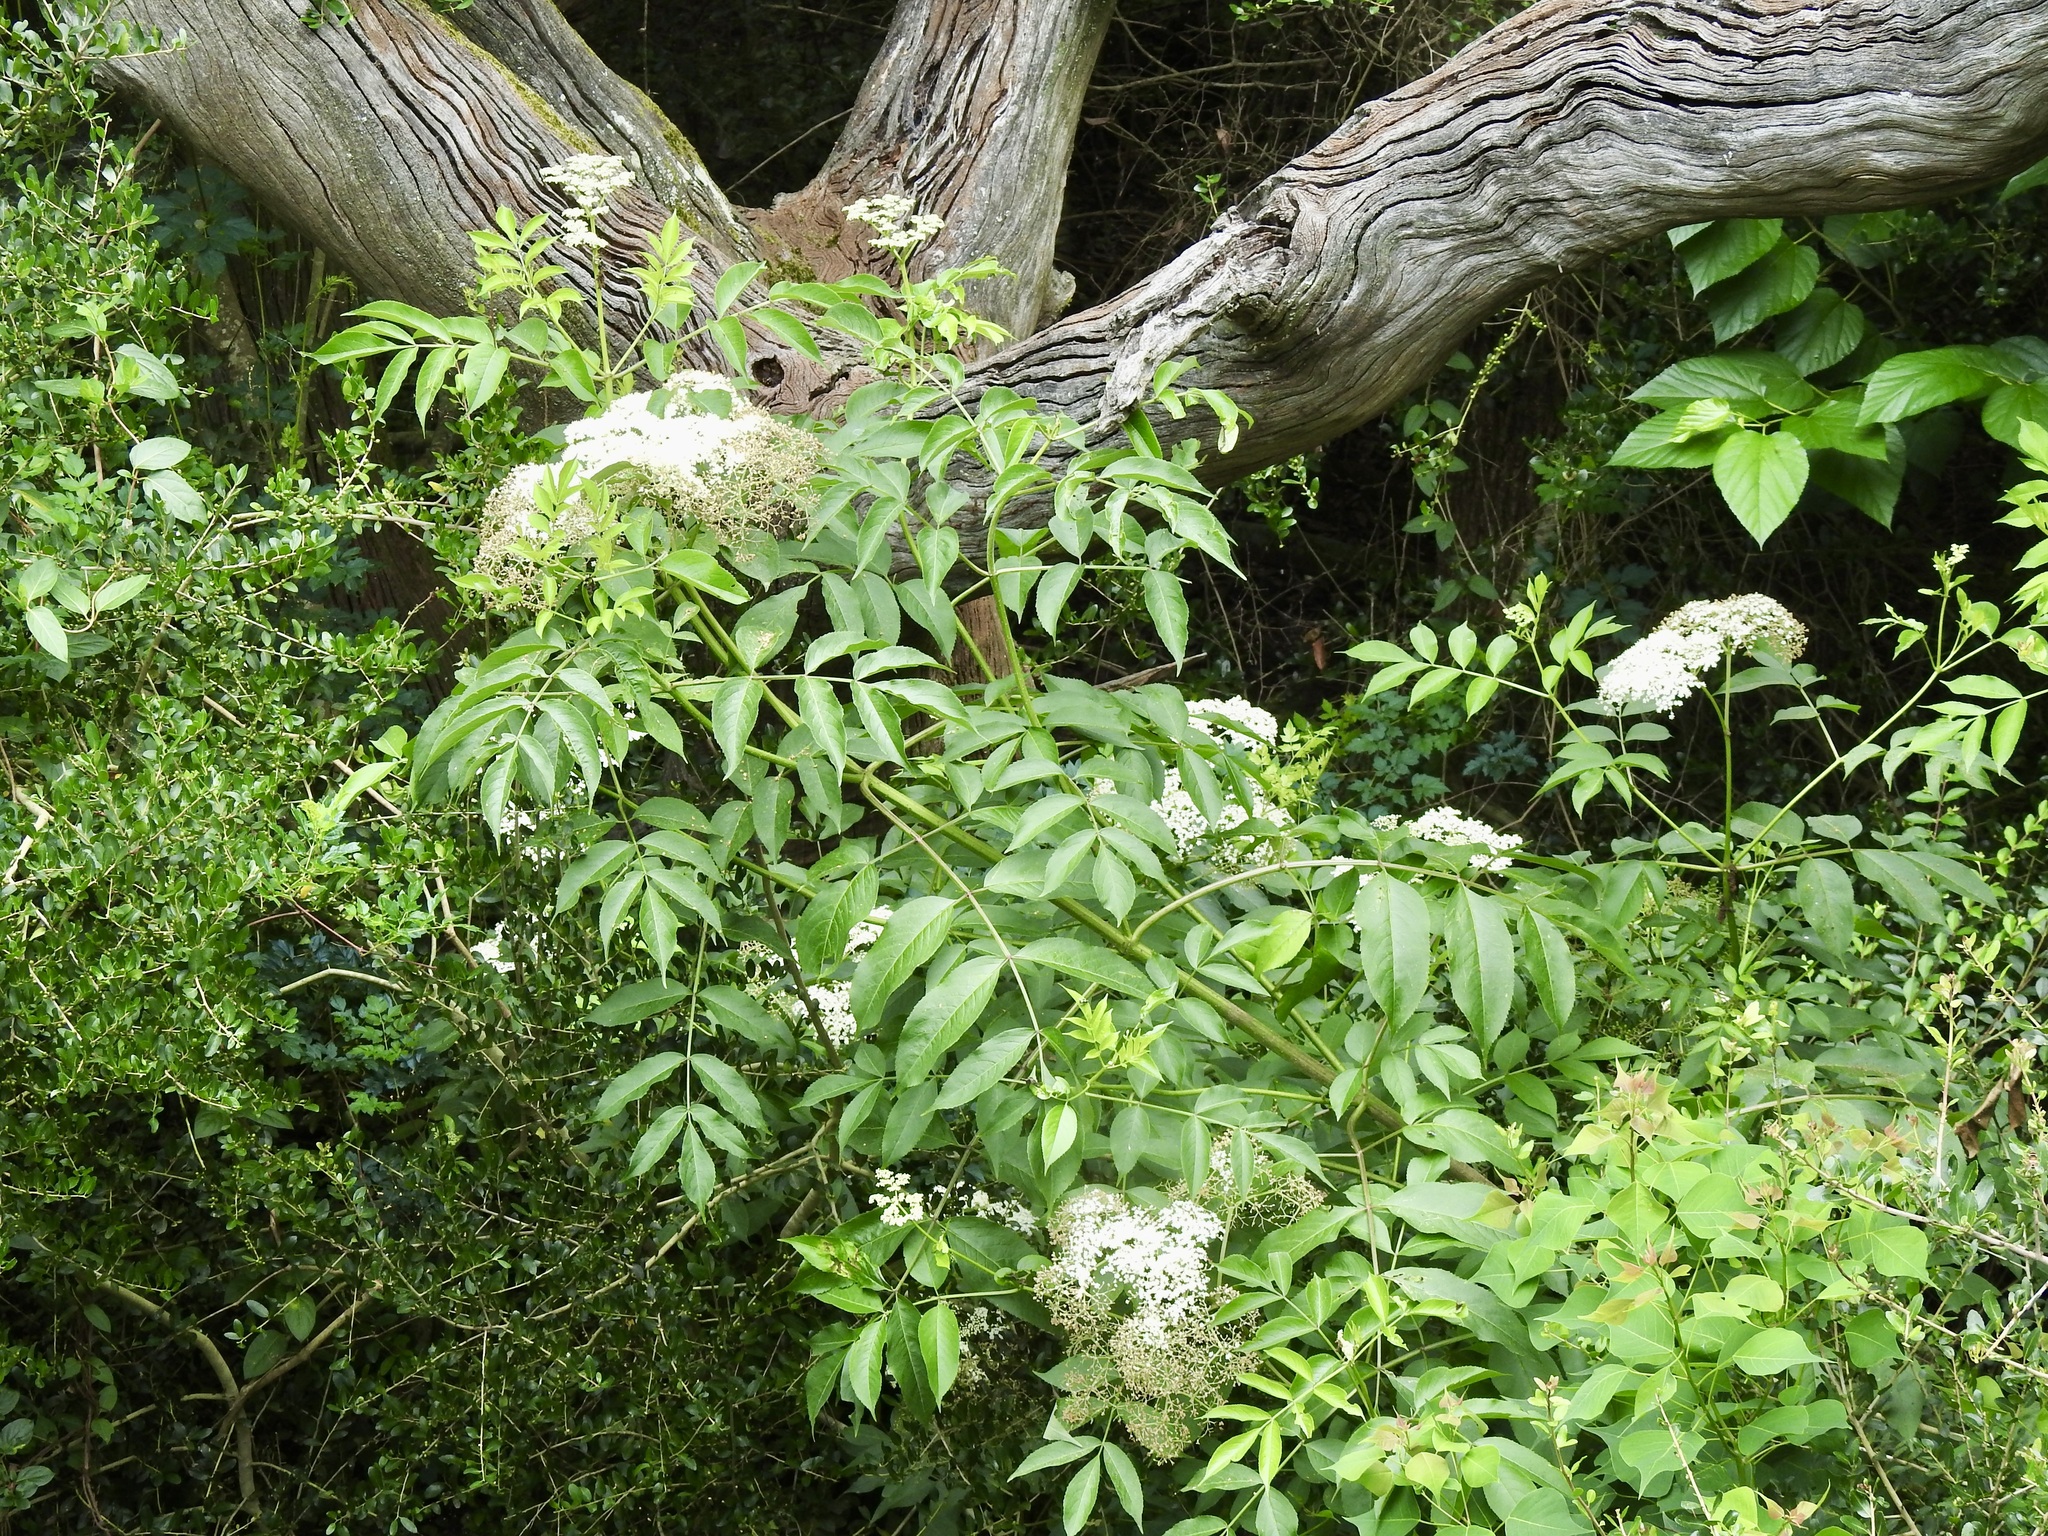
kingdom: Plantae
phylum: Tracheophyta
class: Magnoliopsida
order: Dipsacales
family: Viburnaceae
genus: Sambucus
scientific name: Sambucus canadensis
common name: American elder
